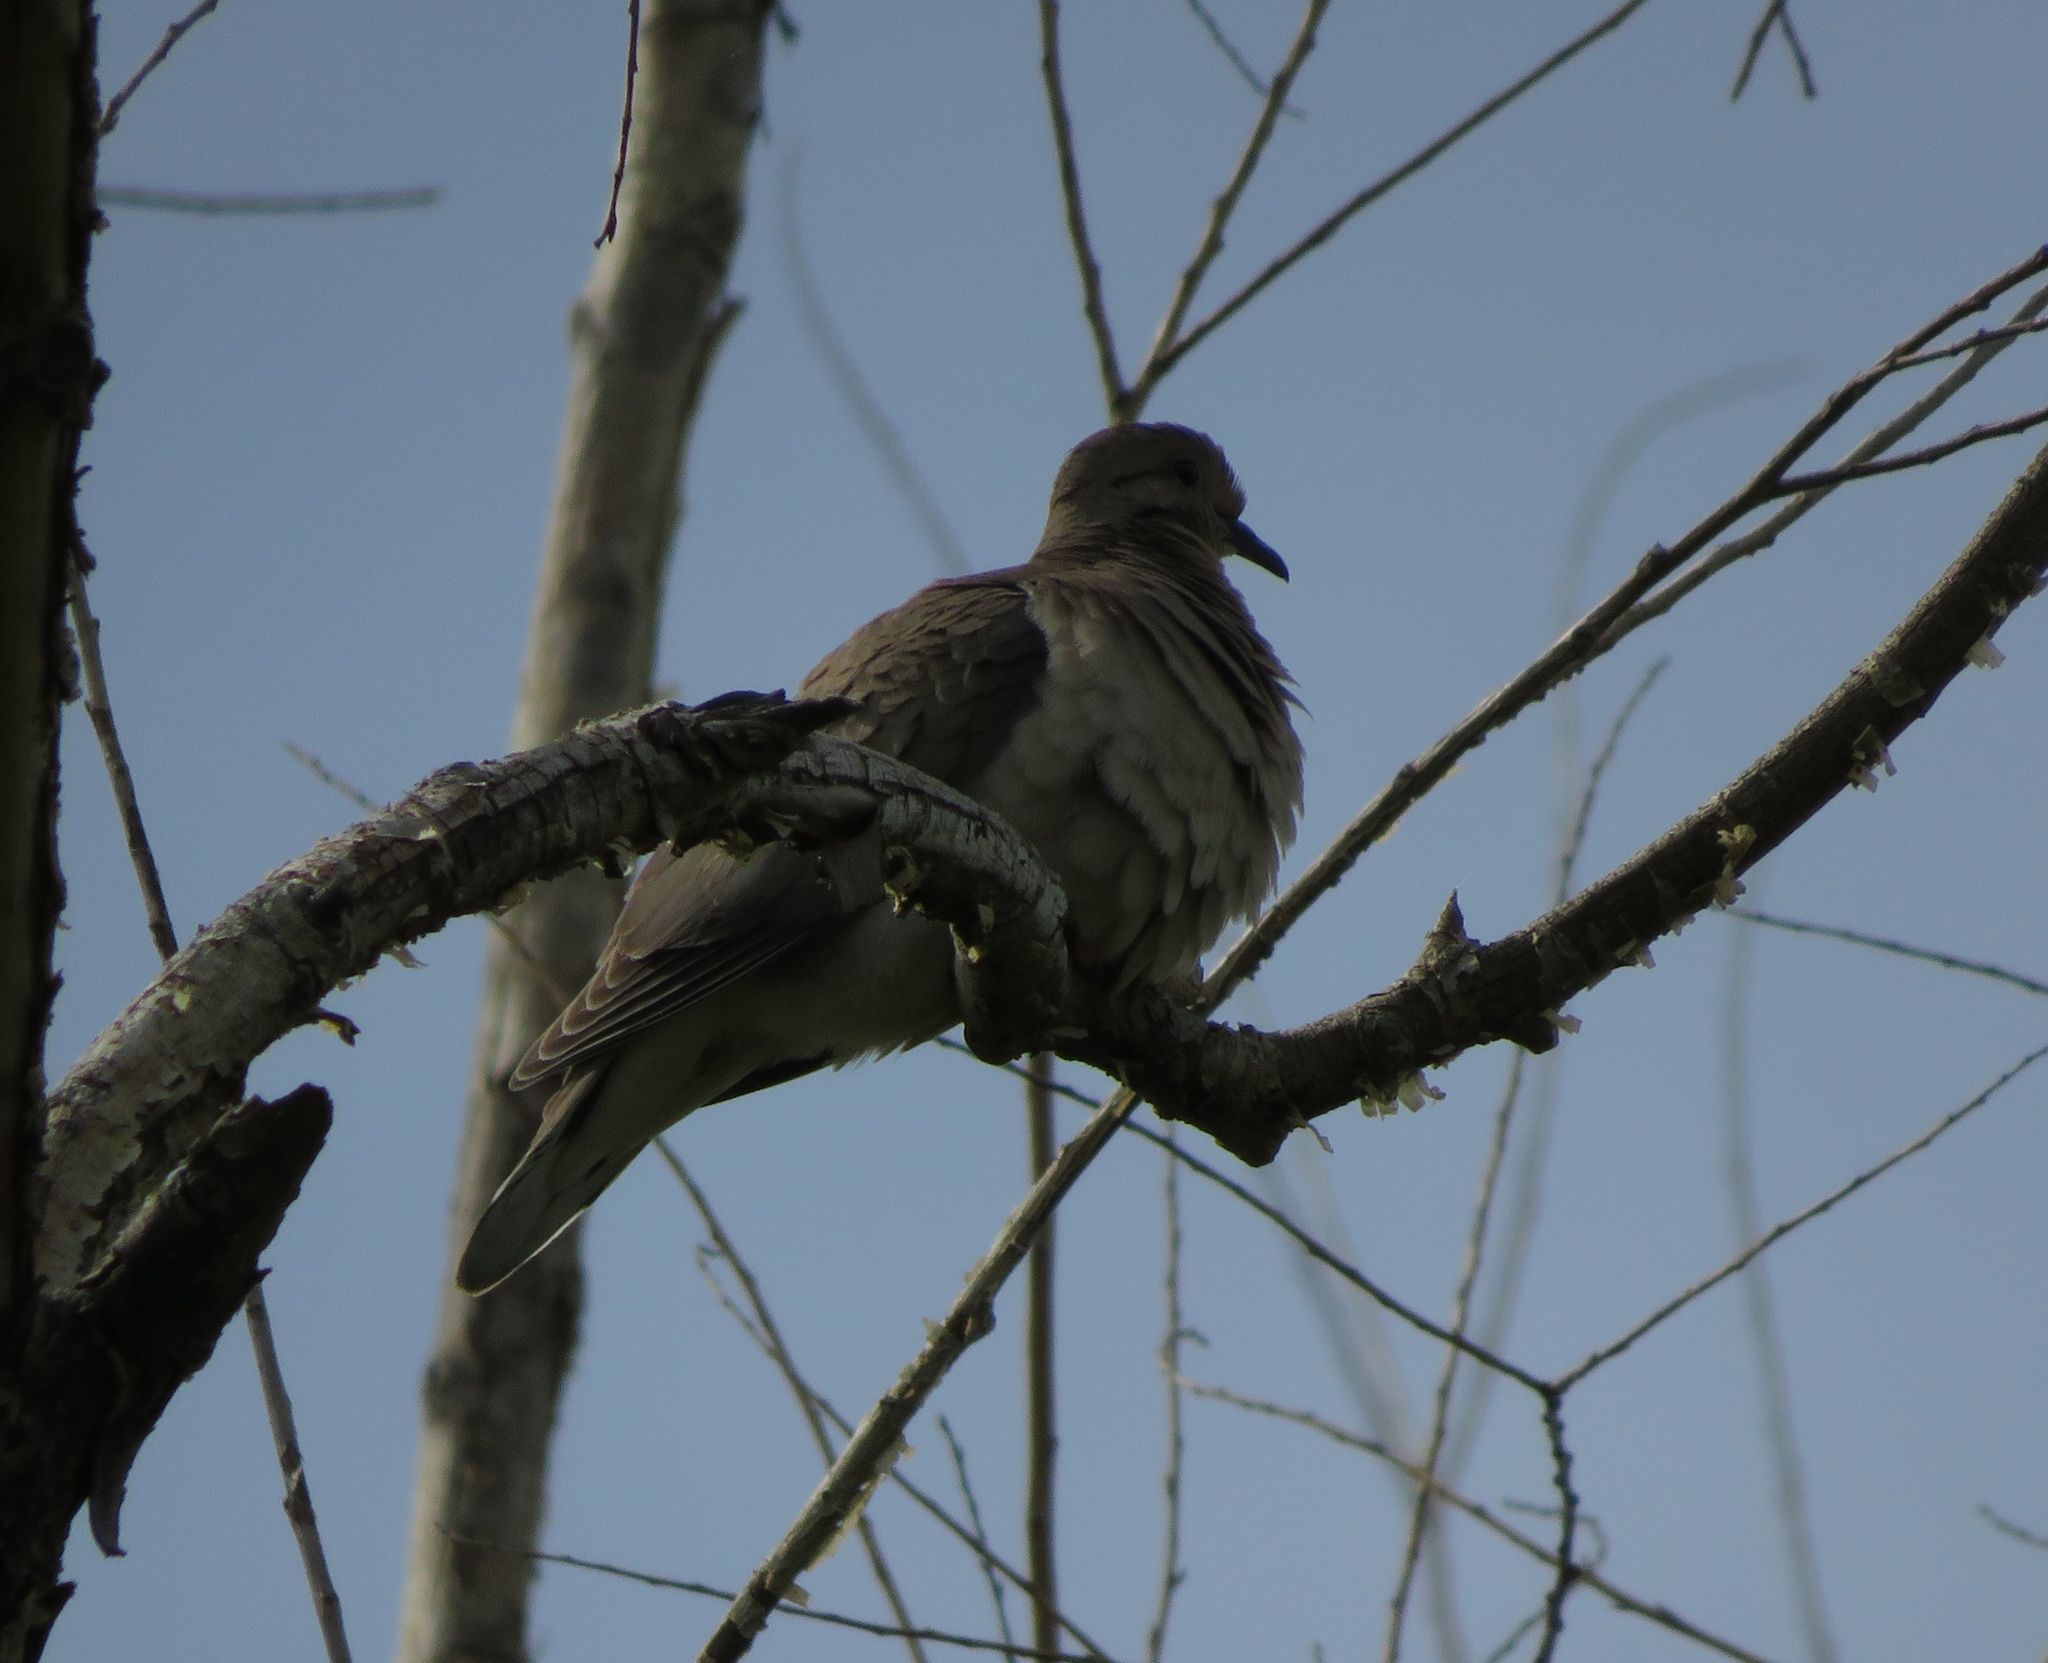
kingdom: Animalia
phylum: Chordata
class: Aves
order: Columbiformes
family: Columbidae
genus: Zenaida
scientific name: Zenaida auriculata
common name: Eared dove
